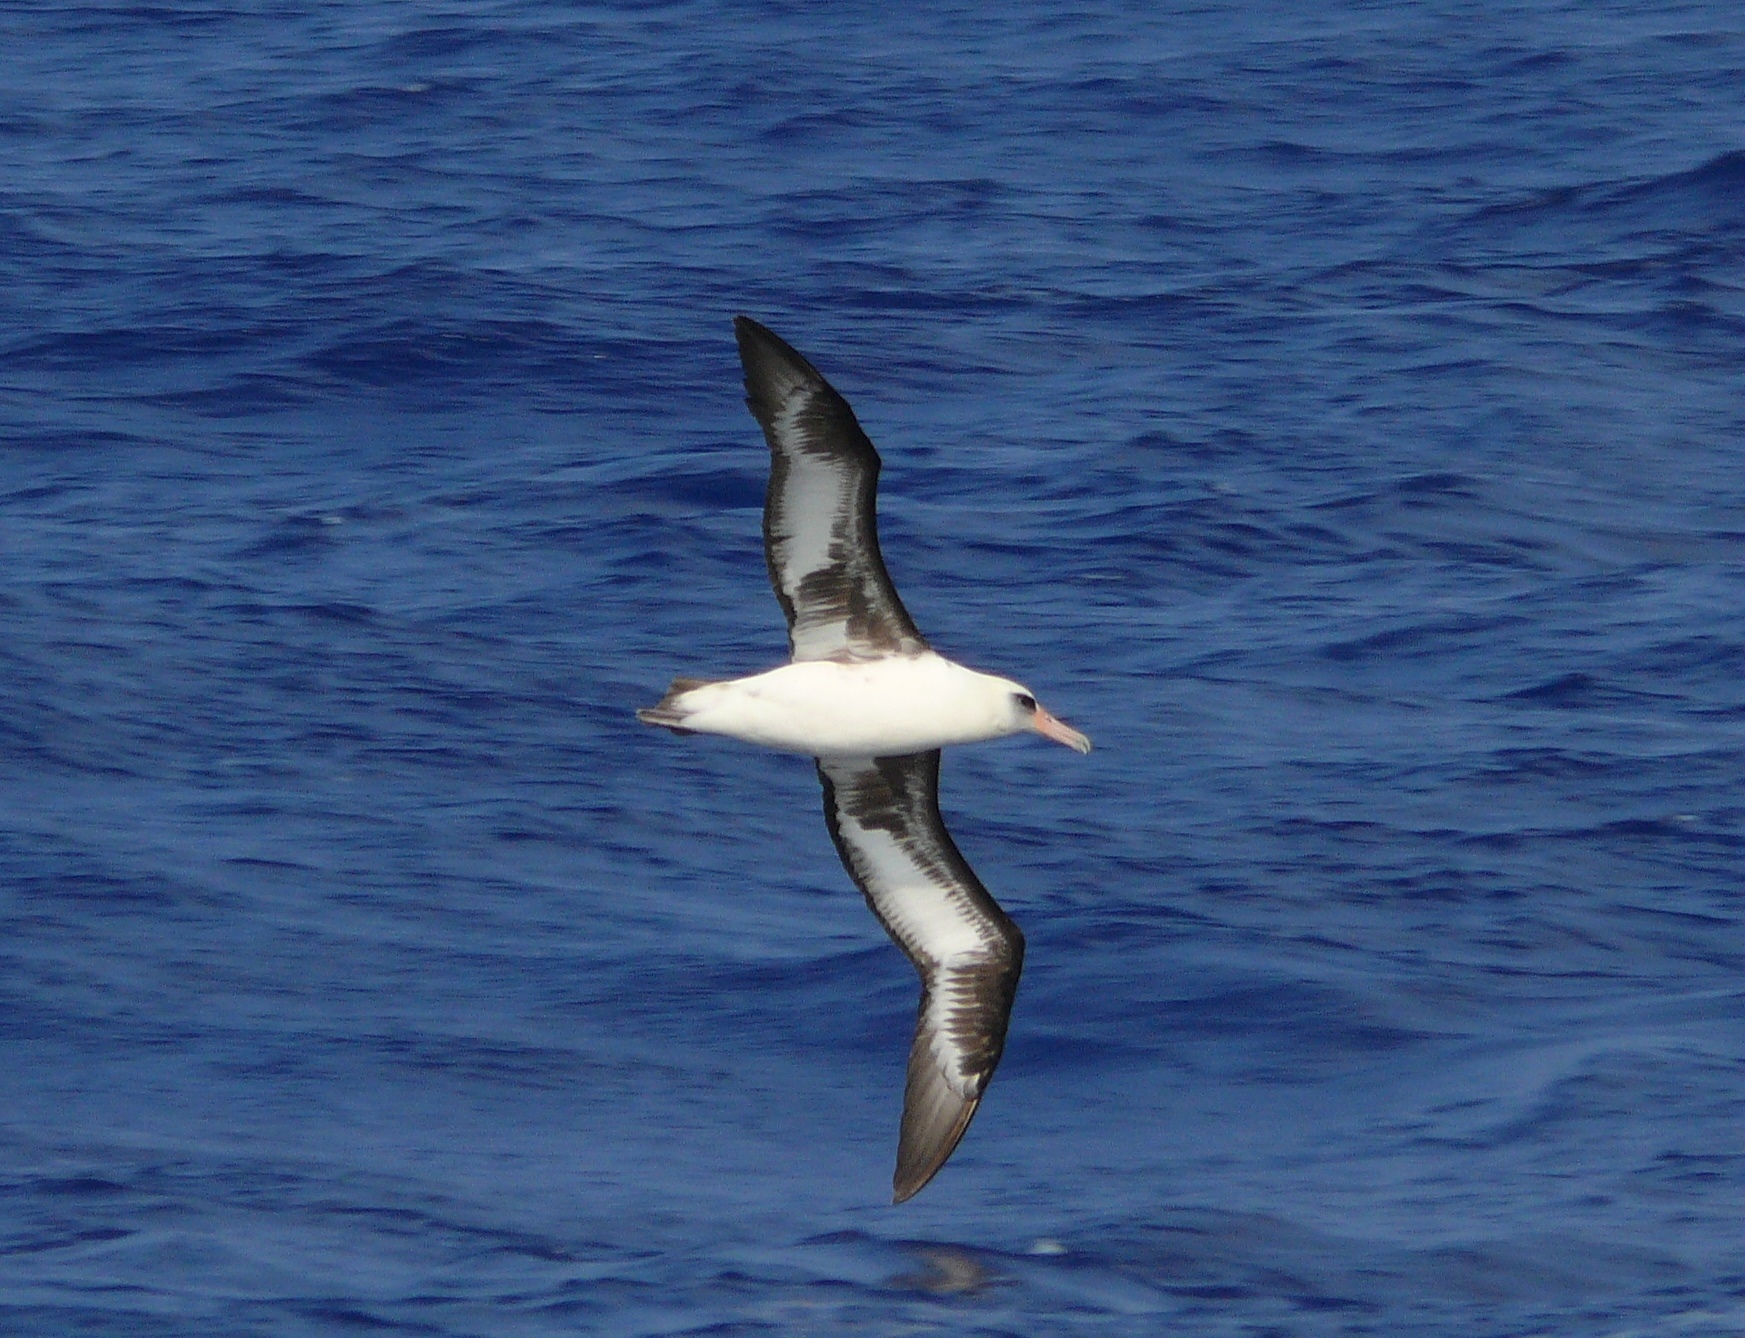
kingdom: Animalia
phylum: Chordata
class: Aves
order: Procellariiformes
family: Diomedeidae
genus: Phoebastria
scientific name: Phoebastria immutabilis
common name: Laysan albatross
